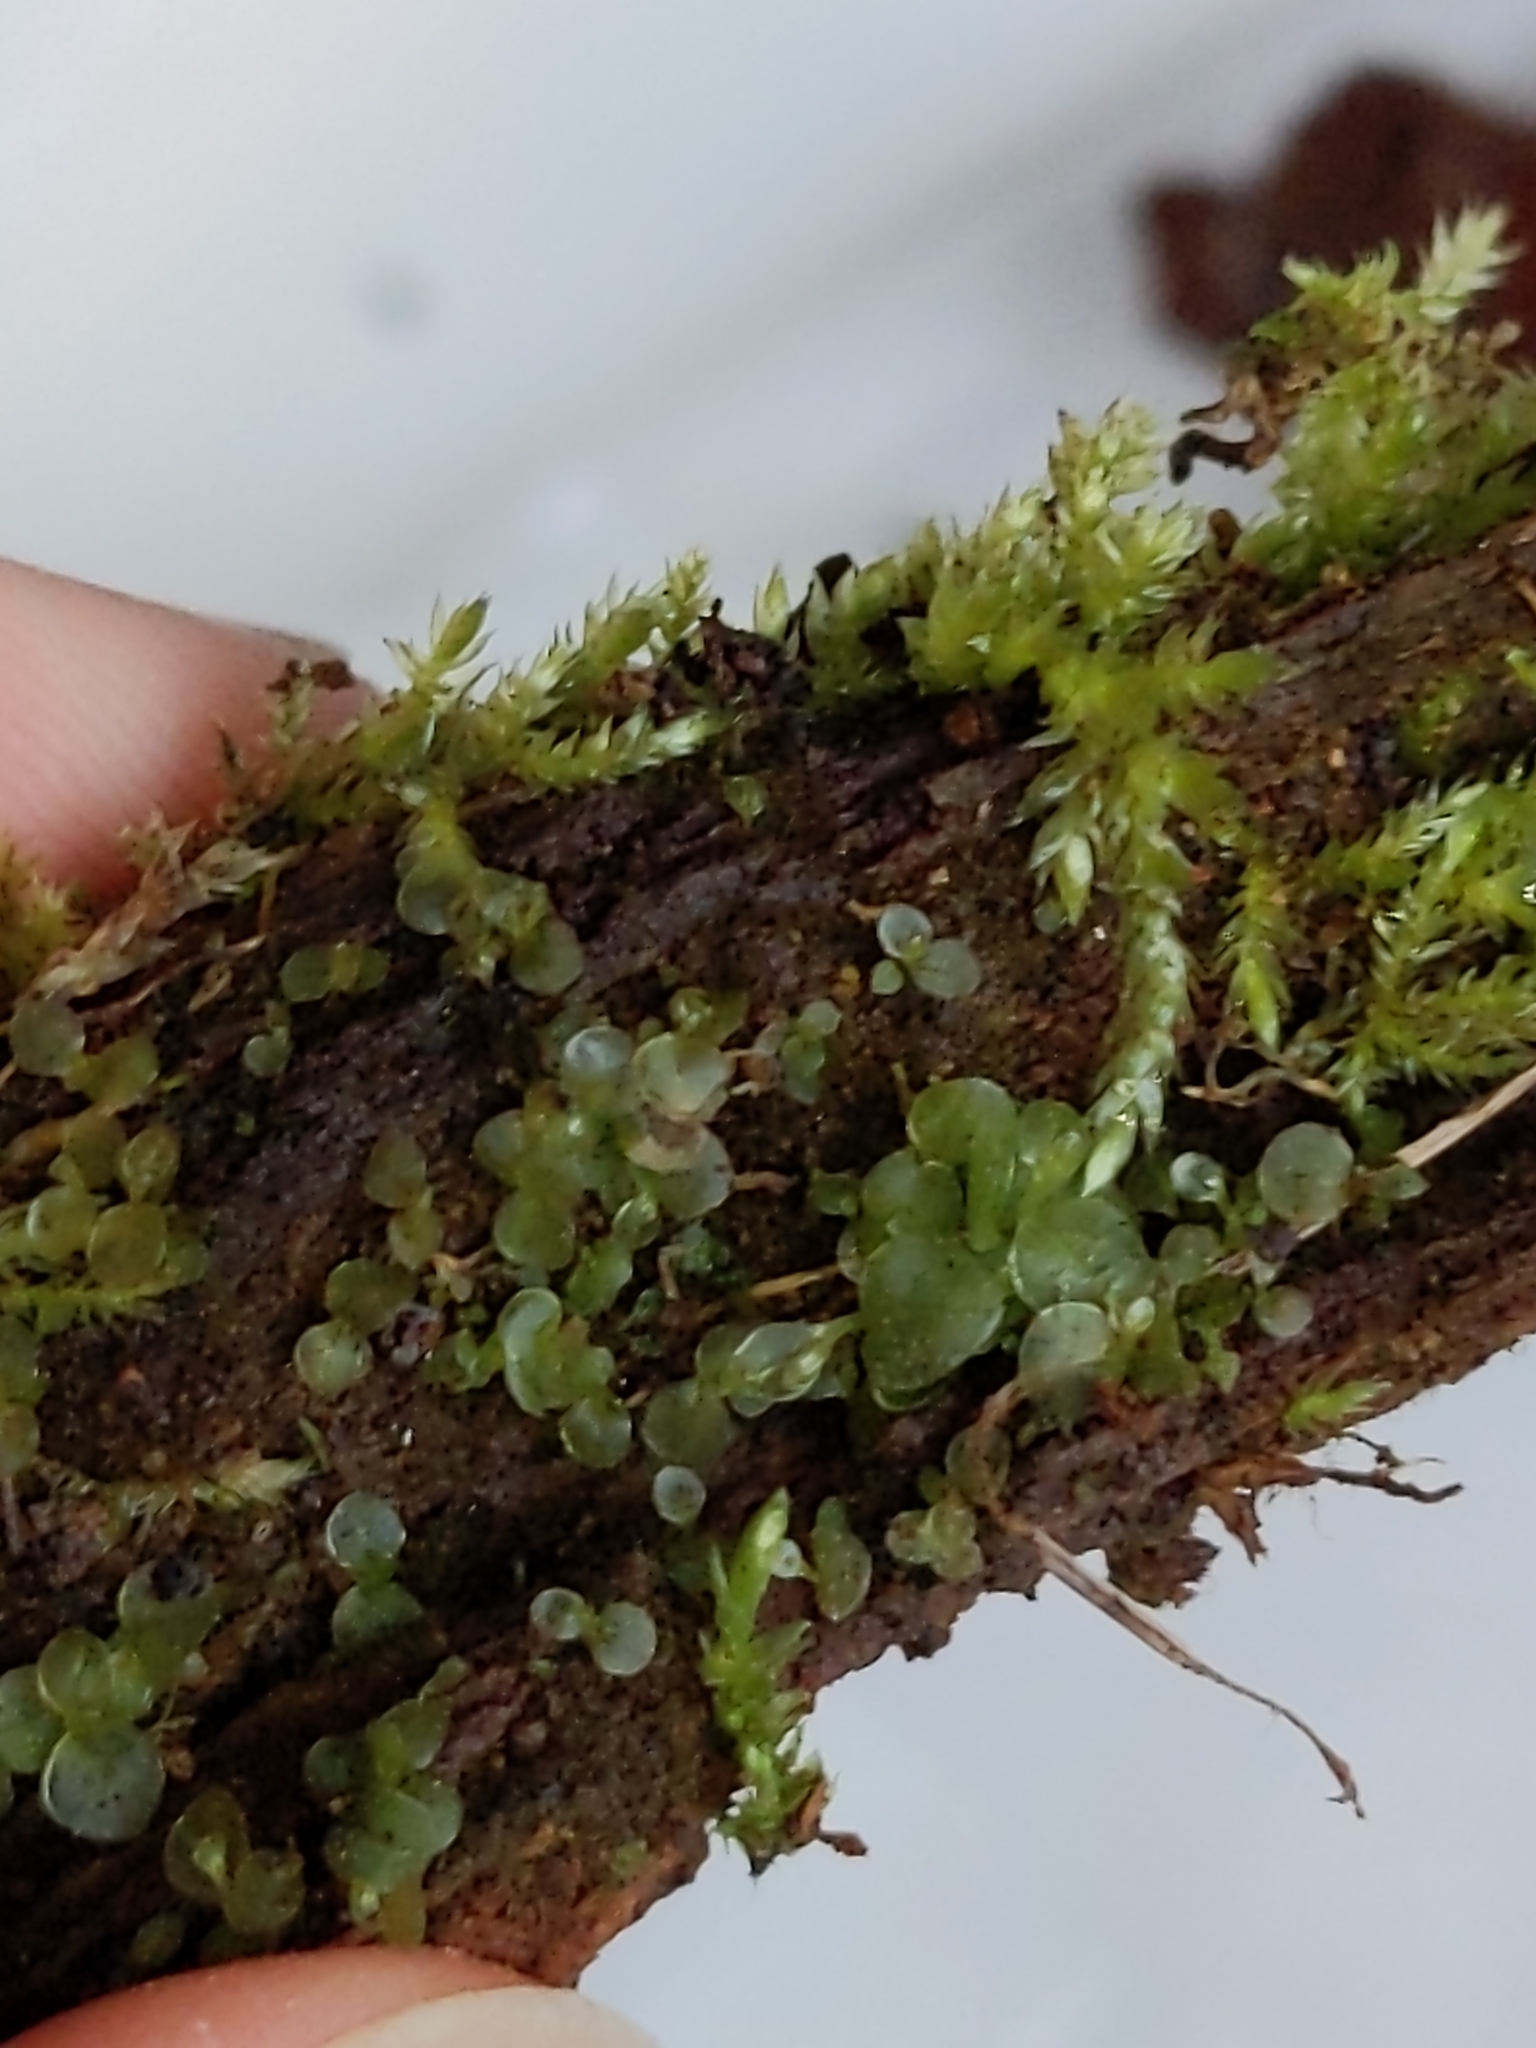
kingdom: Plantae
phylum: Bryophyta
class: Bryopsida
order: Bryales
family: Mniaceae
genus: Rhizomnium
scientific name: Rhizomnium punctatum
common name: Dotted leafy moss
